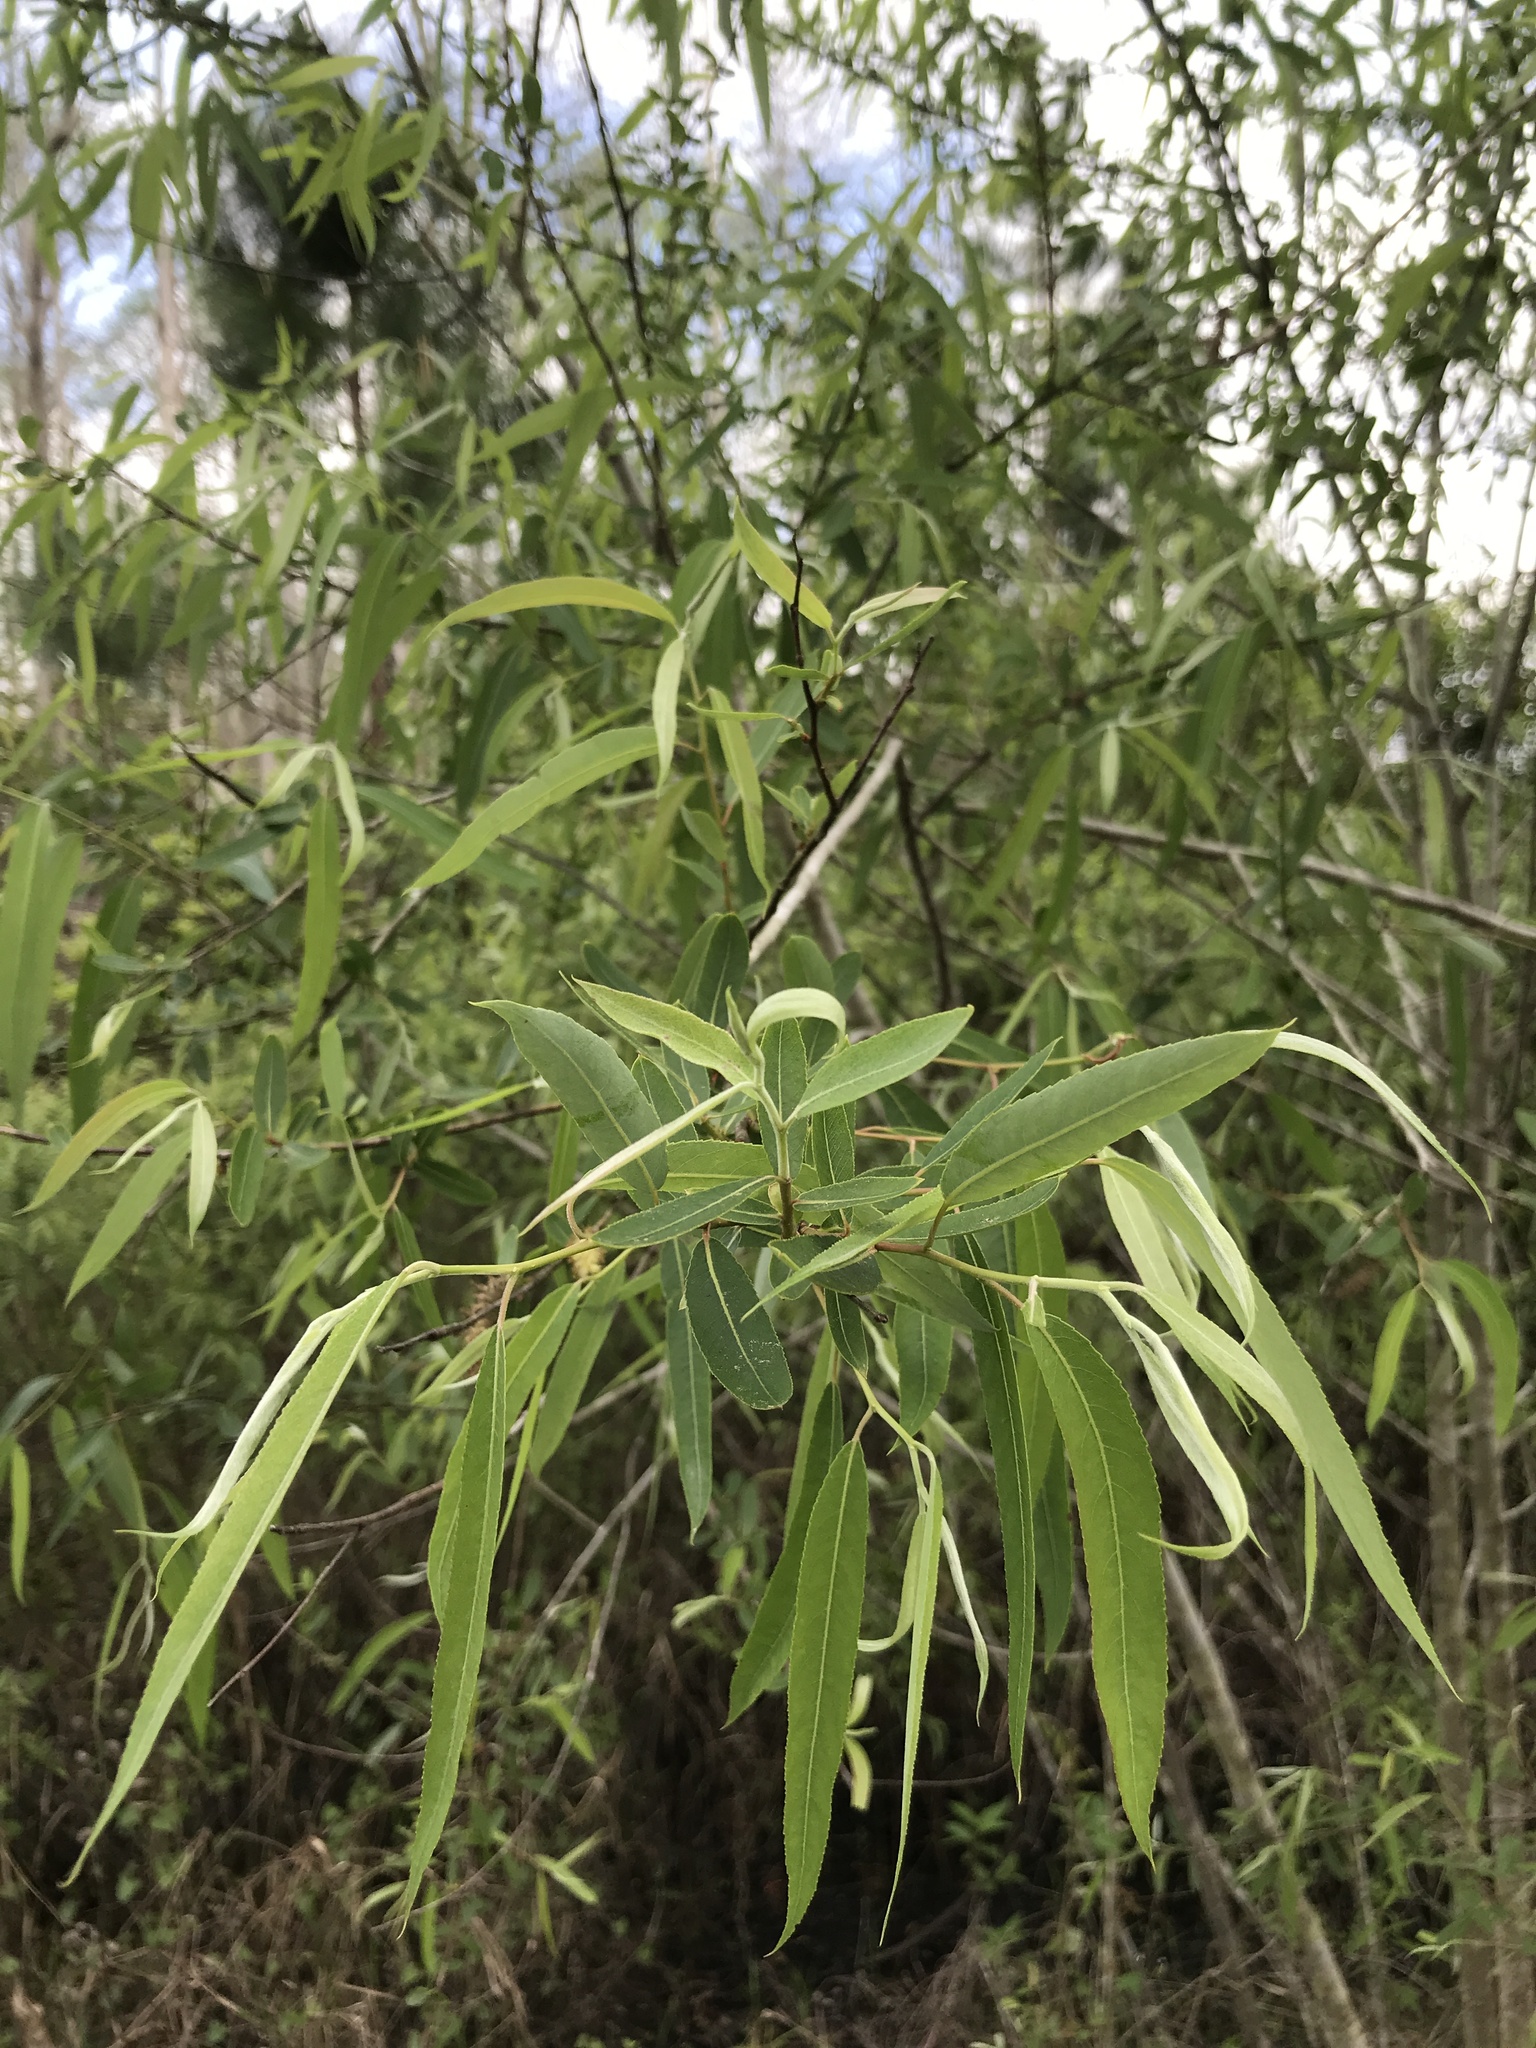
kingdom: Plantae
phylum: Tracheophyta
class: Magnoliopsida
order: Malpighiales
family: Salicaceae
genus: Salix
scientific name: Salix caroliniana
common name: Carolina willow
